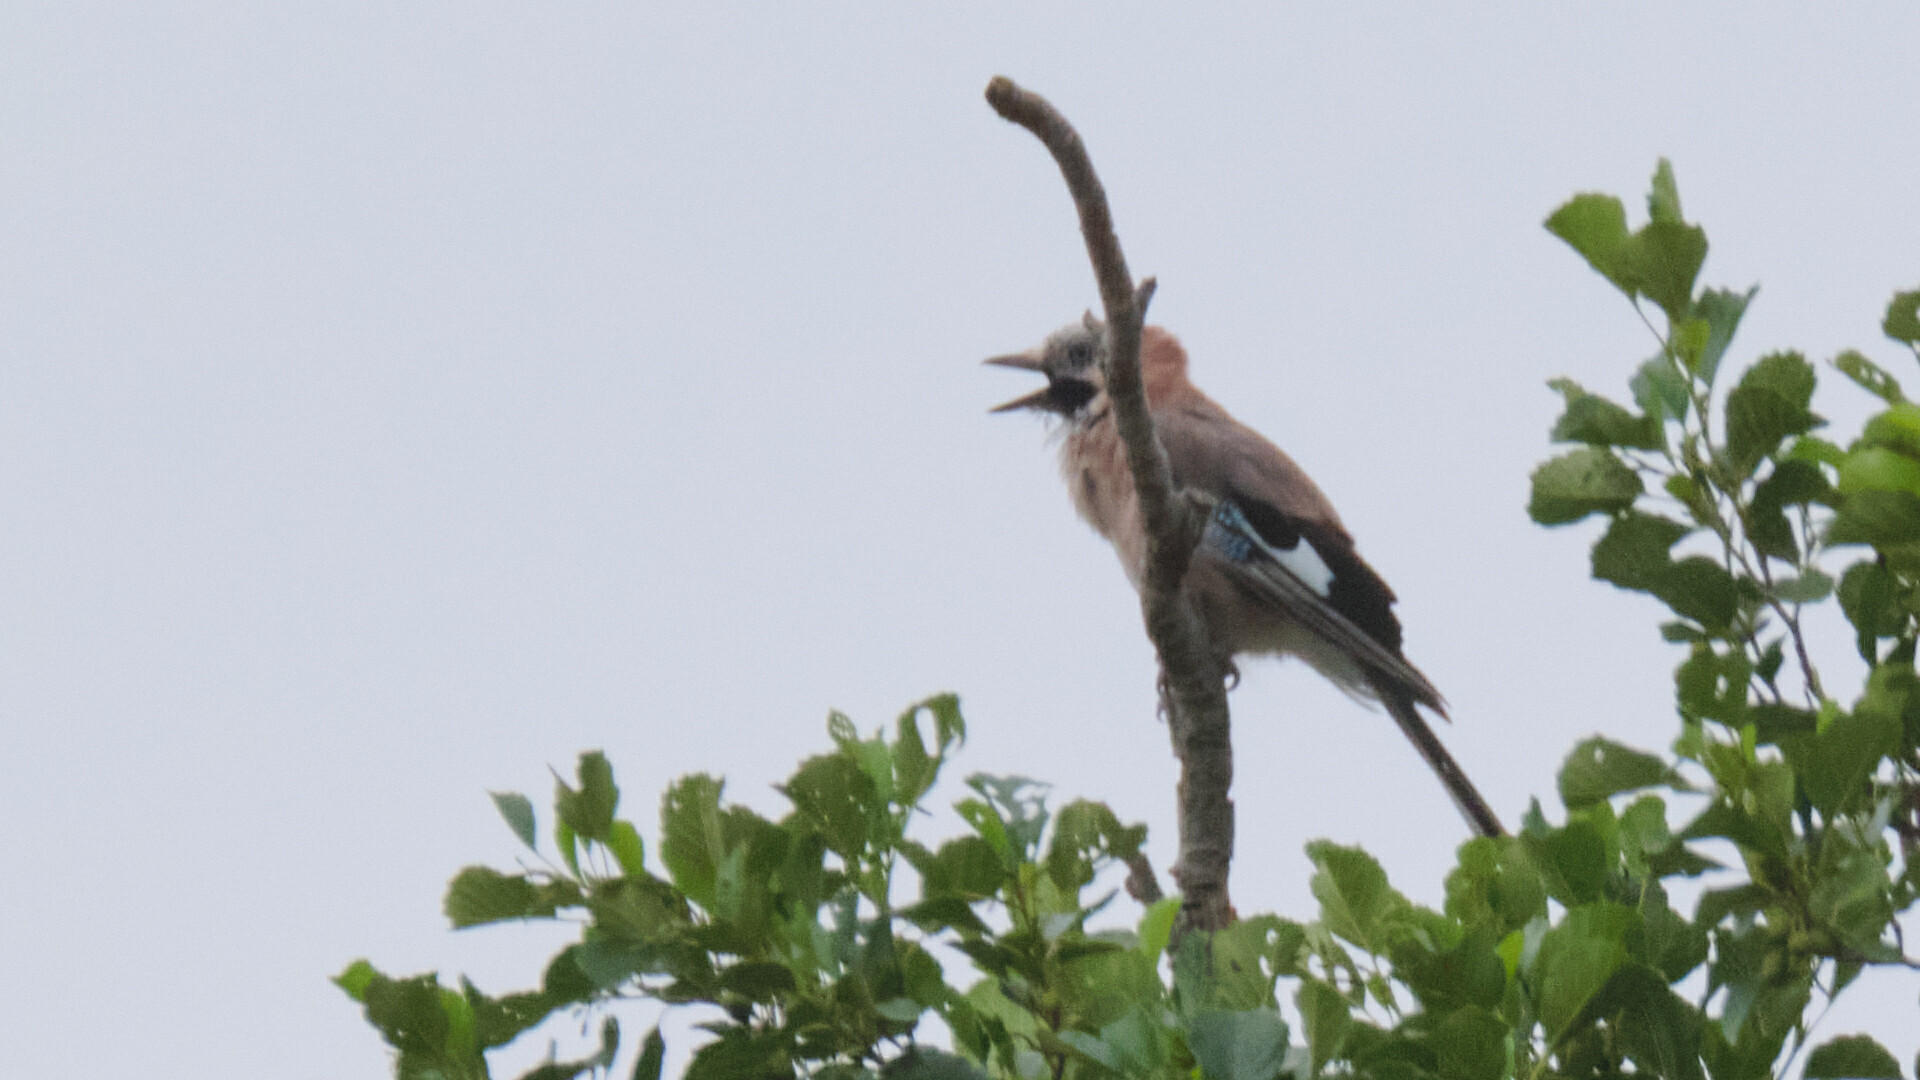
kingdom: Animalia
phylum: Chordata
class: Aves
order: Passeriformes
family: Corvidae
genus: Garrulus
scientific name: Garrulus glandarius
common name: Eurasian jay
